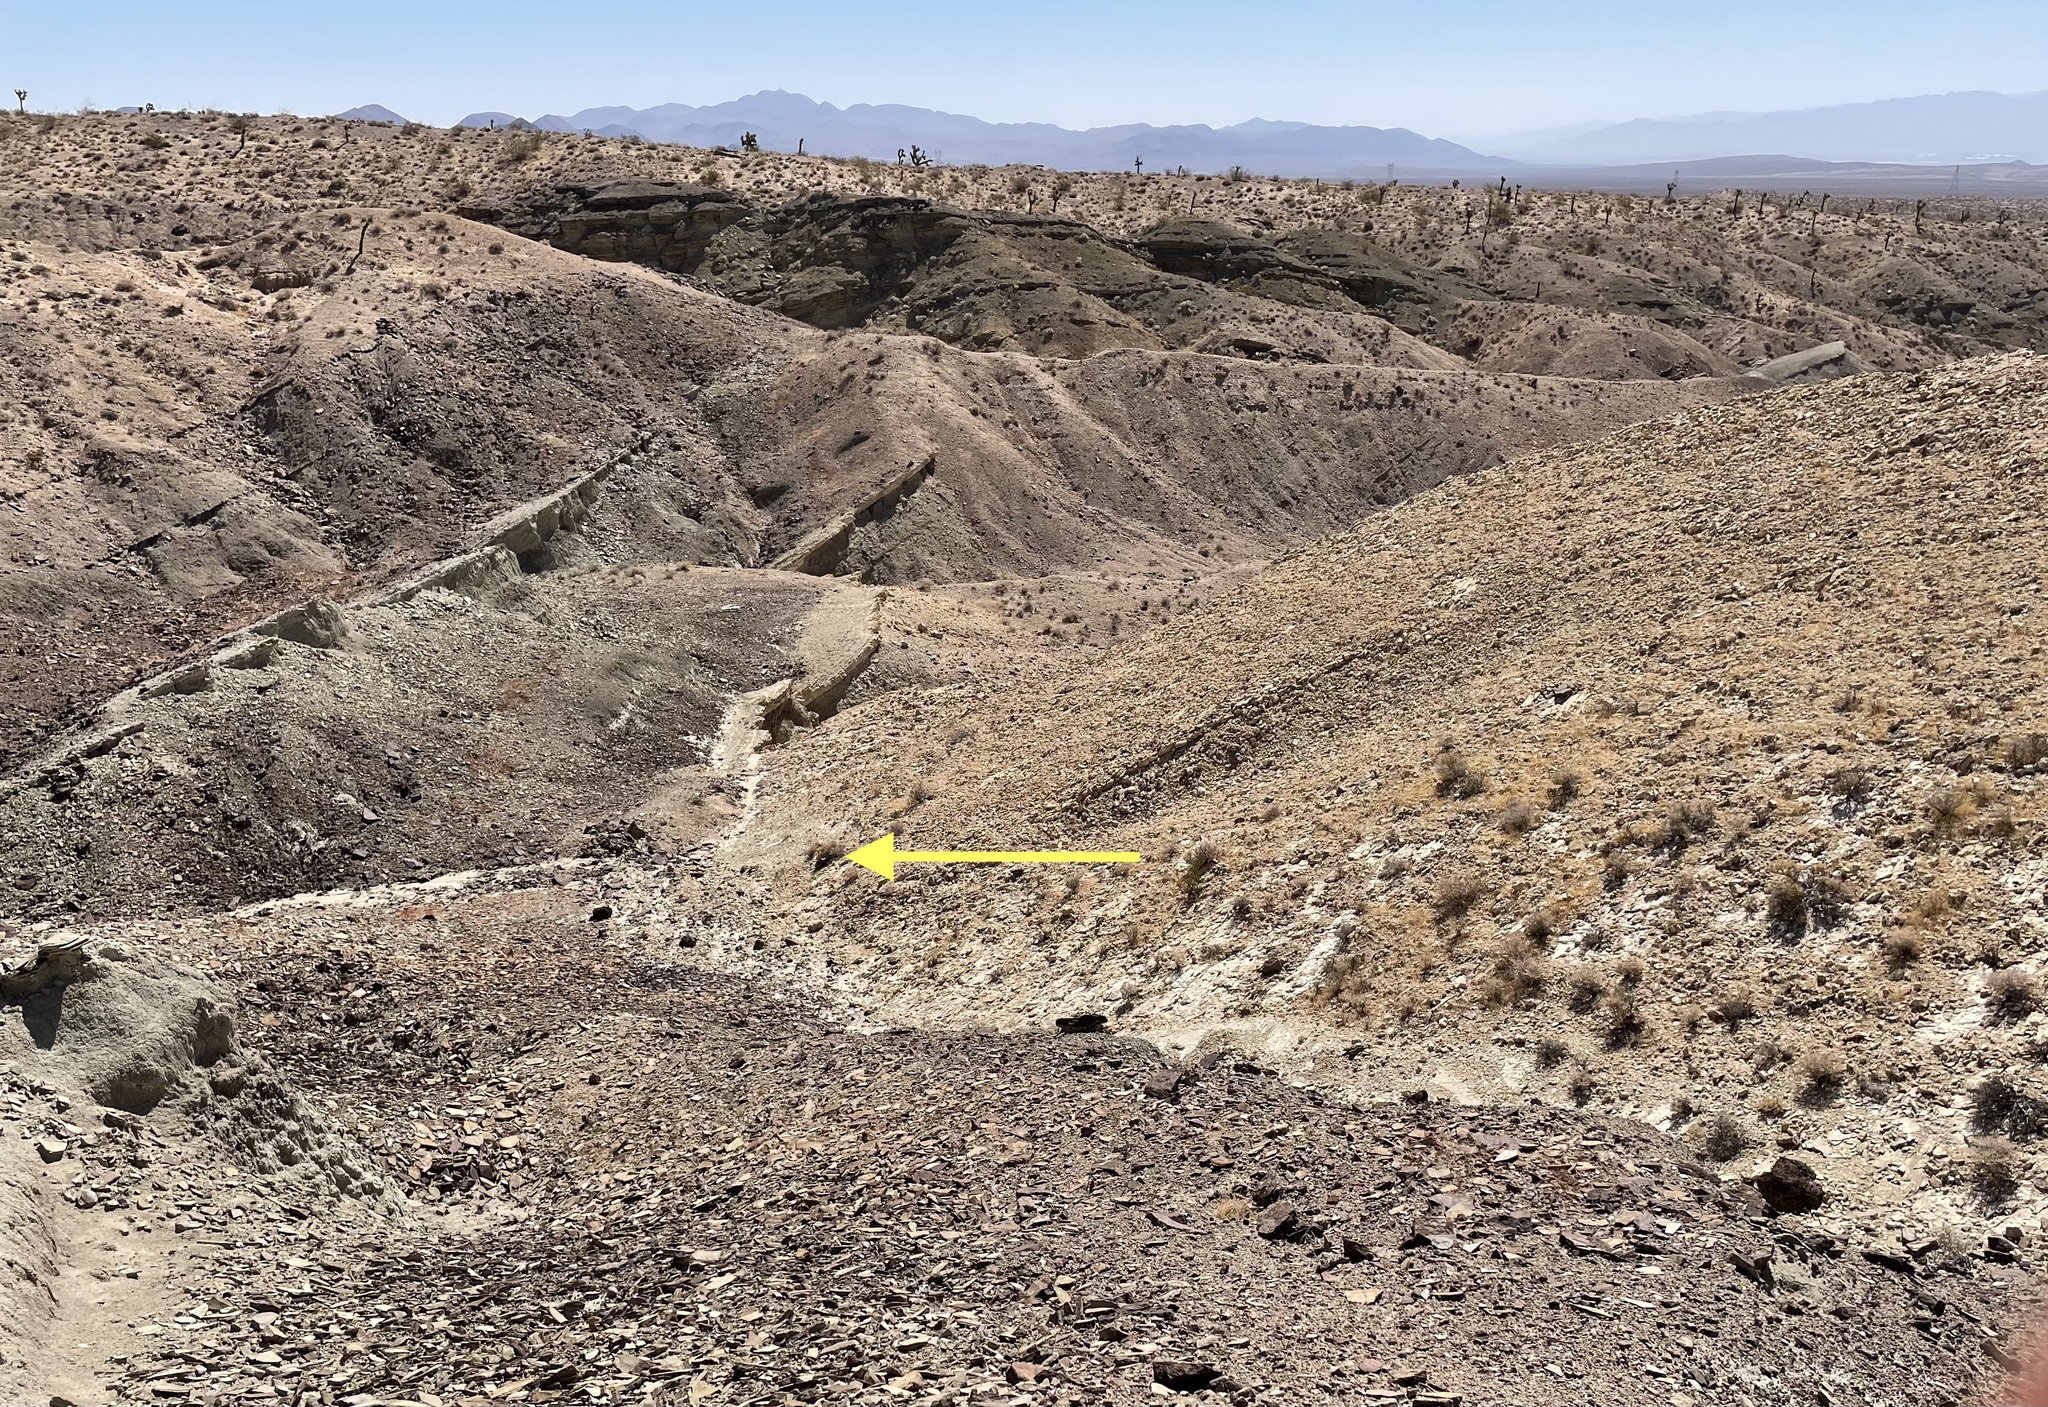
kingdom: Animalia
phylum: Chordata
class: Testudines
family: Testudinidae
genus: Gopherus
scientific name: Gopherus agassizii
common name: Mojave desert tortoise
